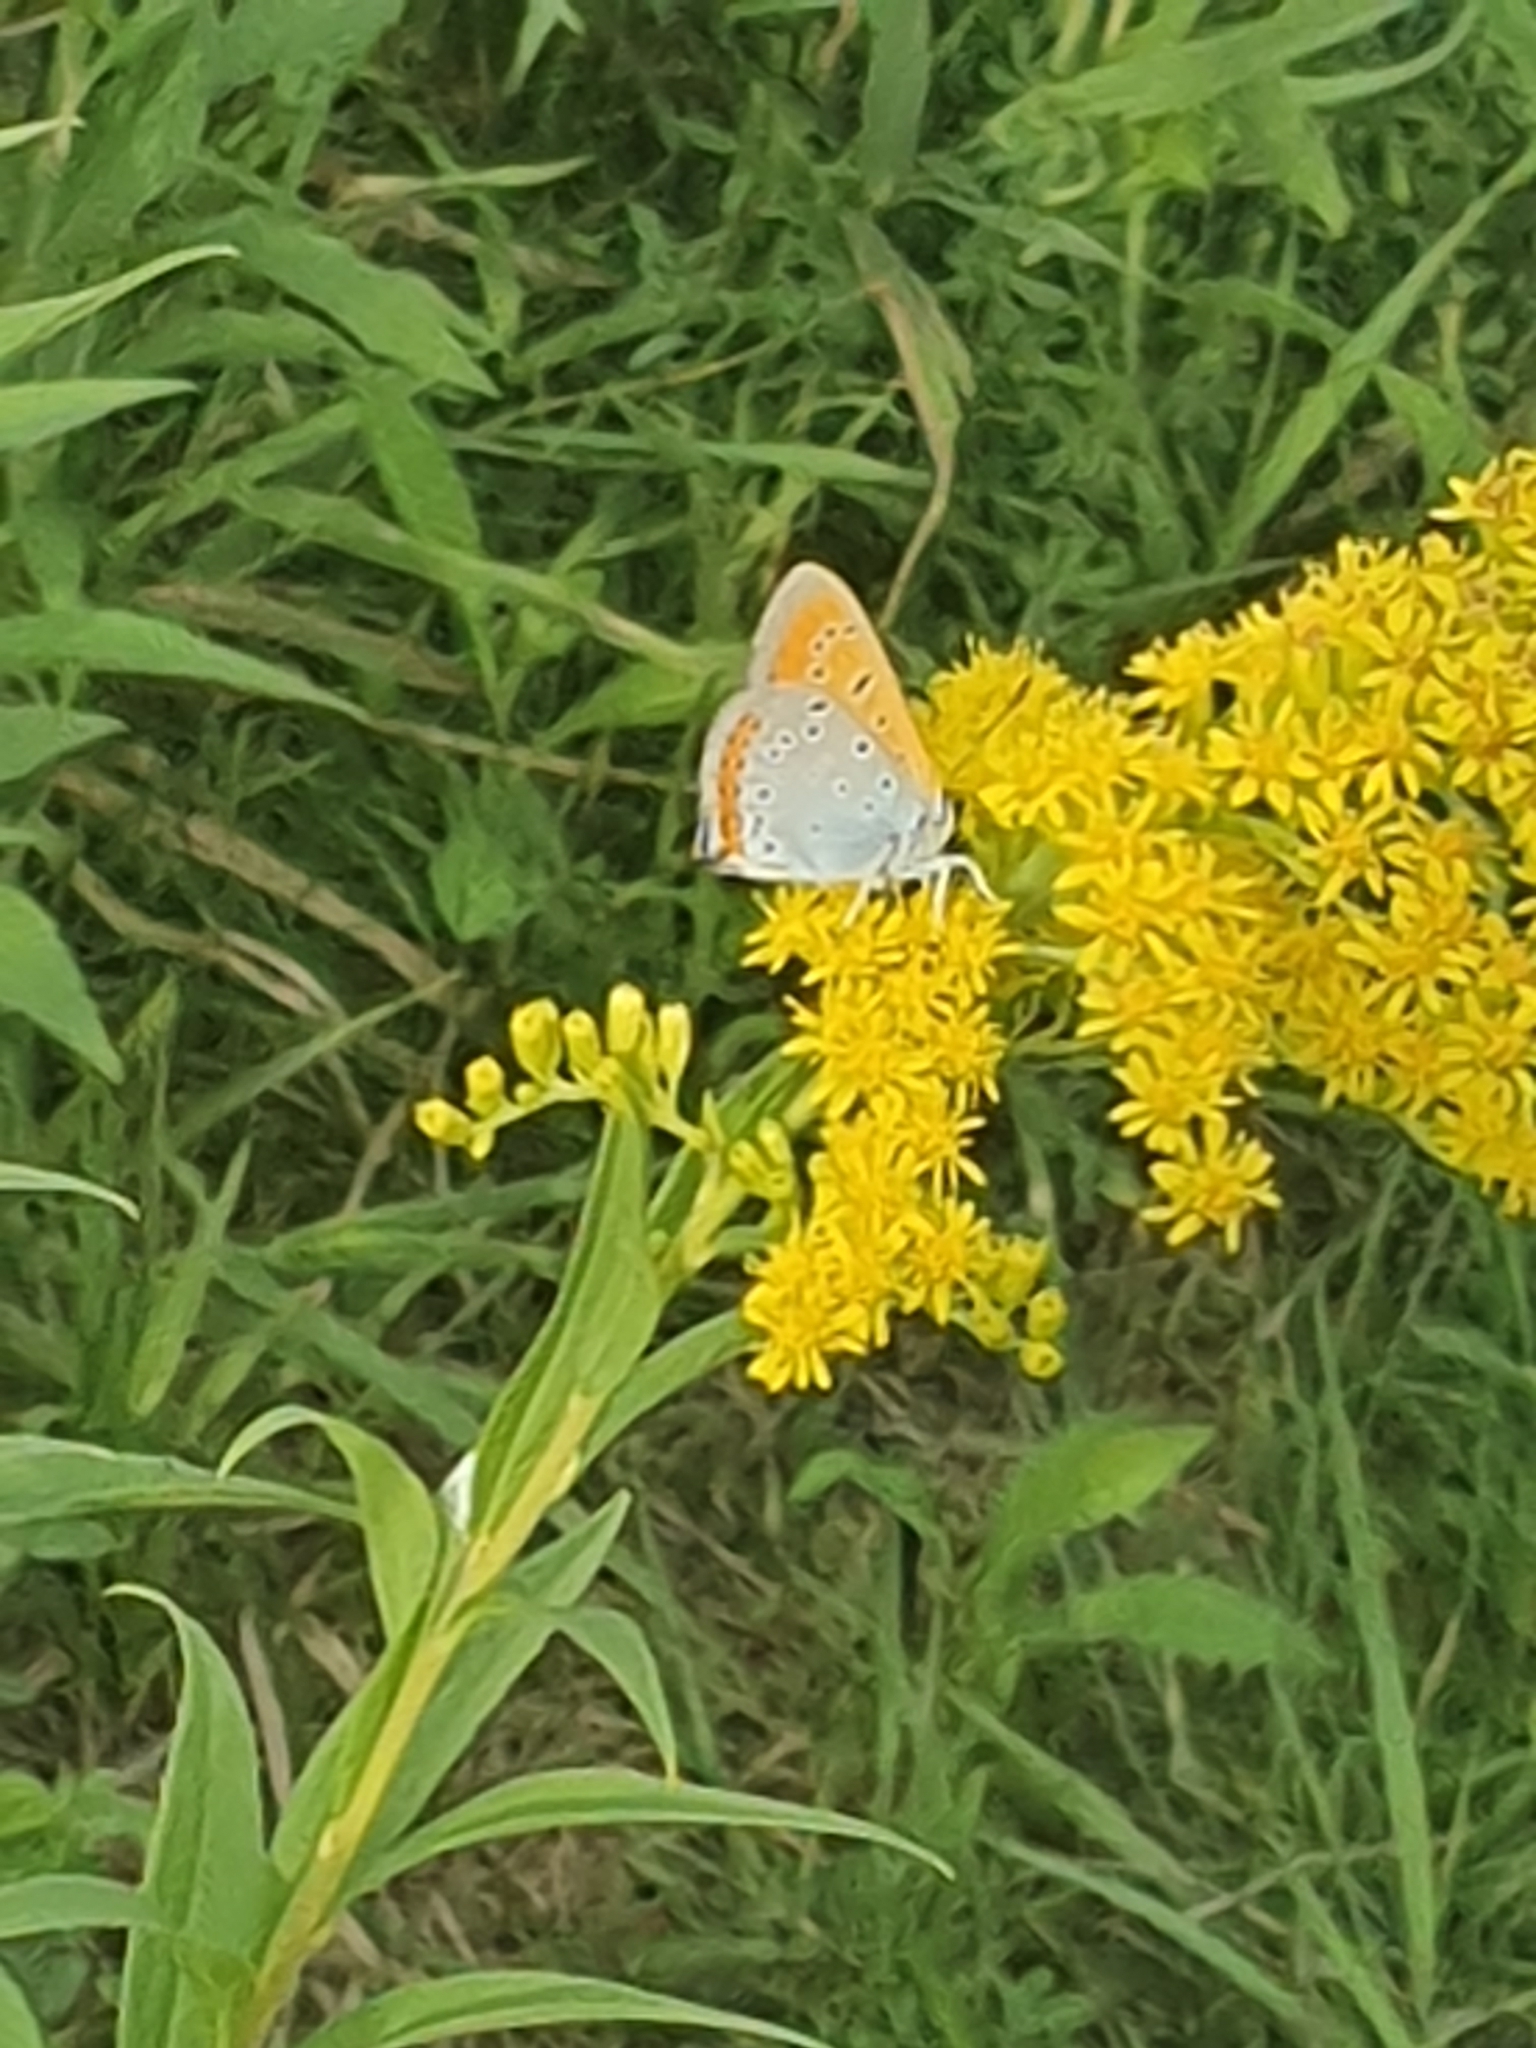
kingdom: Animalia
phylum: Arthropoda
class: Insecta
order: Lepidoptera
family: Lycaenidae
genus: Lycaena
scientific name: Lycaena dispar
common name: Large copper
